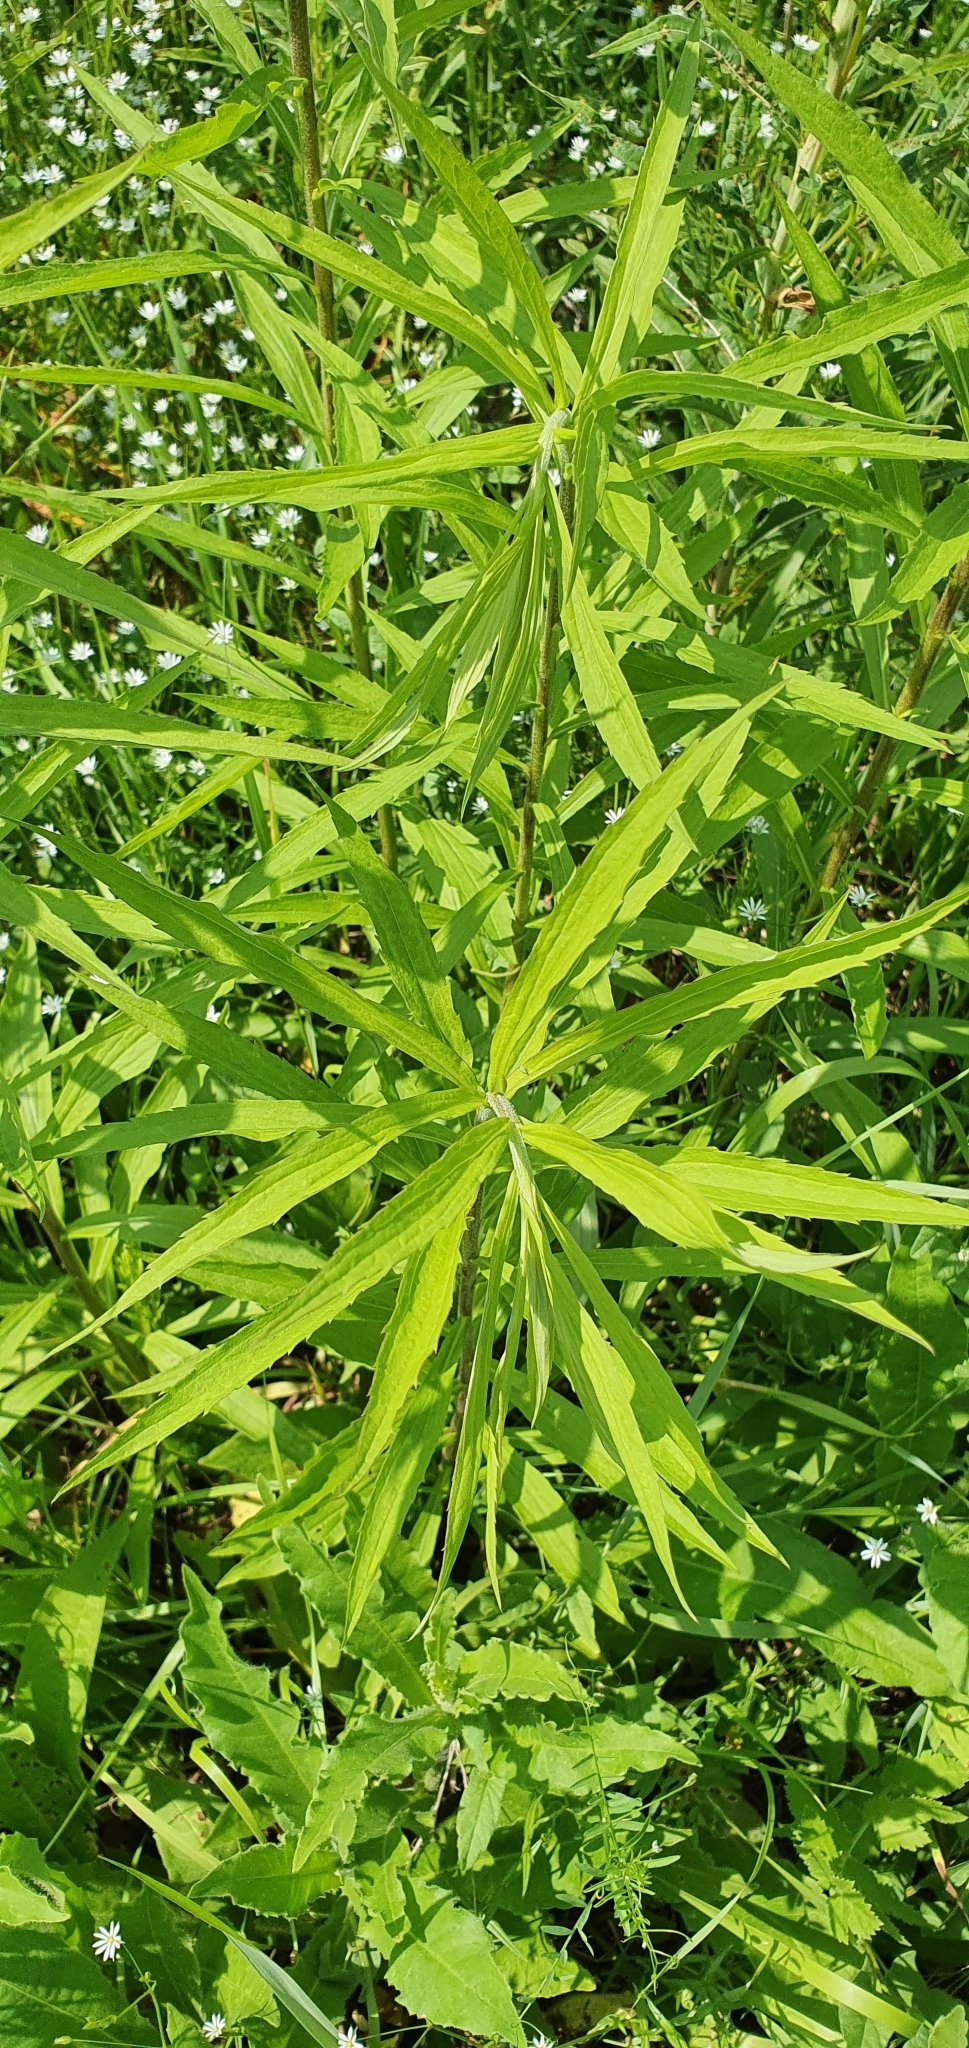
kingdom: Plantae
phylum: Tracheophyta
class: Magnoliopsida
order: Asterales
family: Asteraceae
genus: Solidago
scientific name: Solidago canadensis
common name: Canada goldenrod
